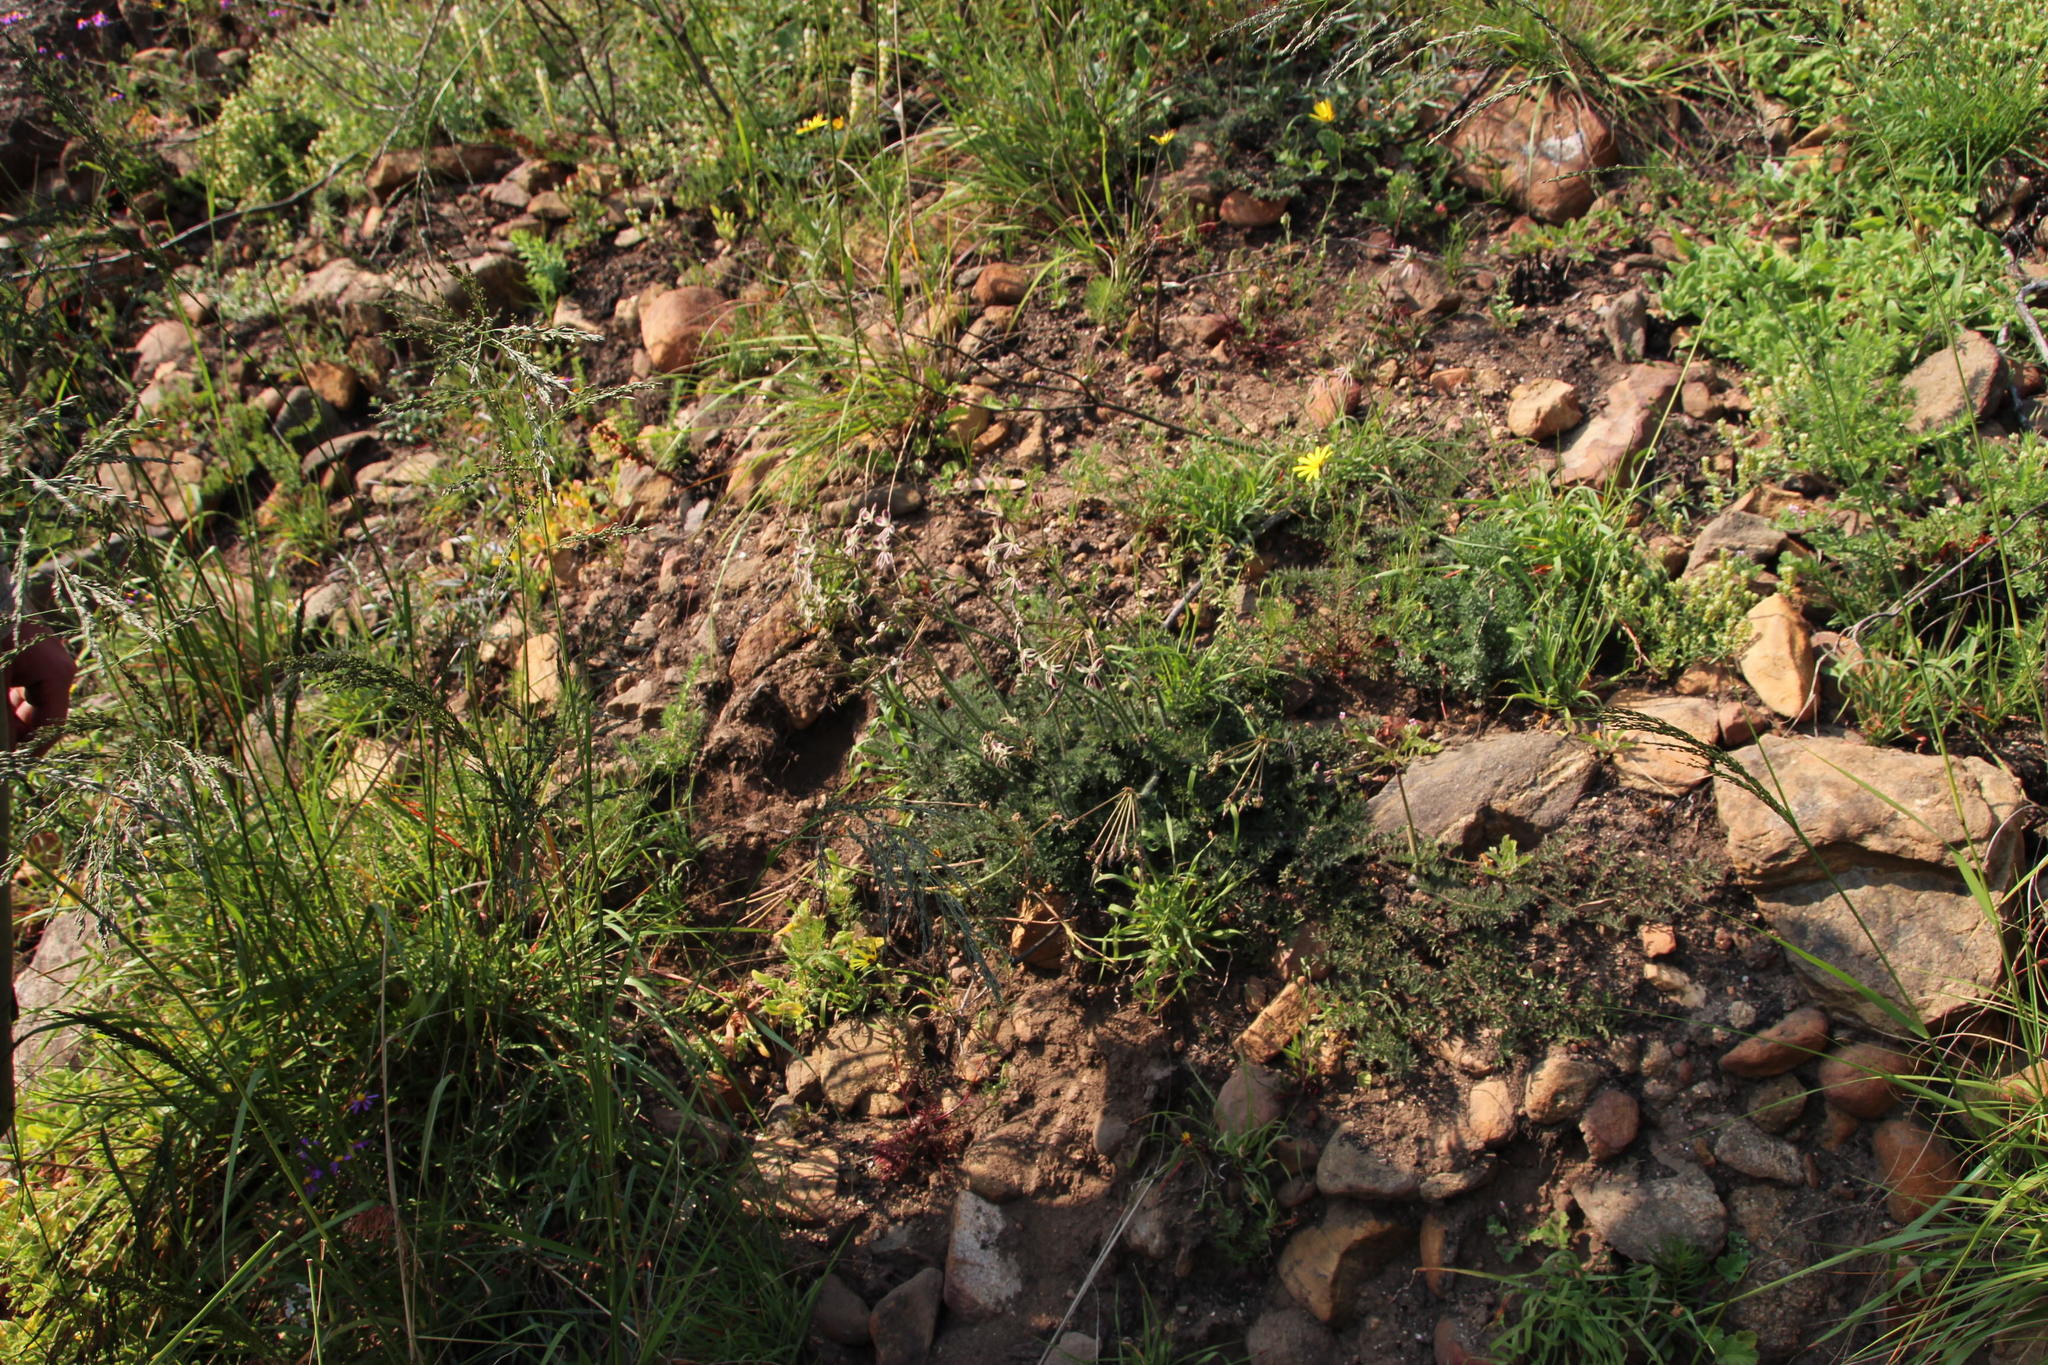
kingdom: Plantae
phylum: Tracheophyta
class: Magnoliopsida
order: Geraniales
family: Geraniaceae
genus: Pelargonium
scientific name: Pelargonium triste
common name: Night-scent pelargonium
